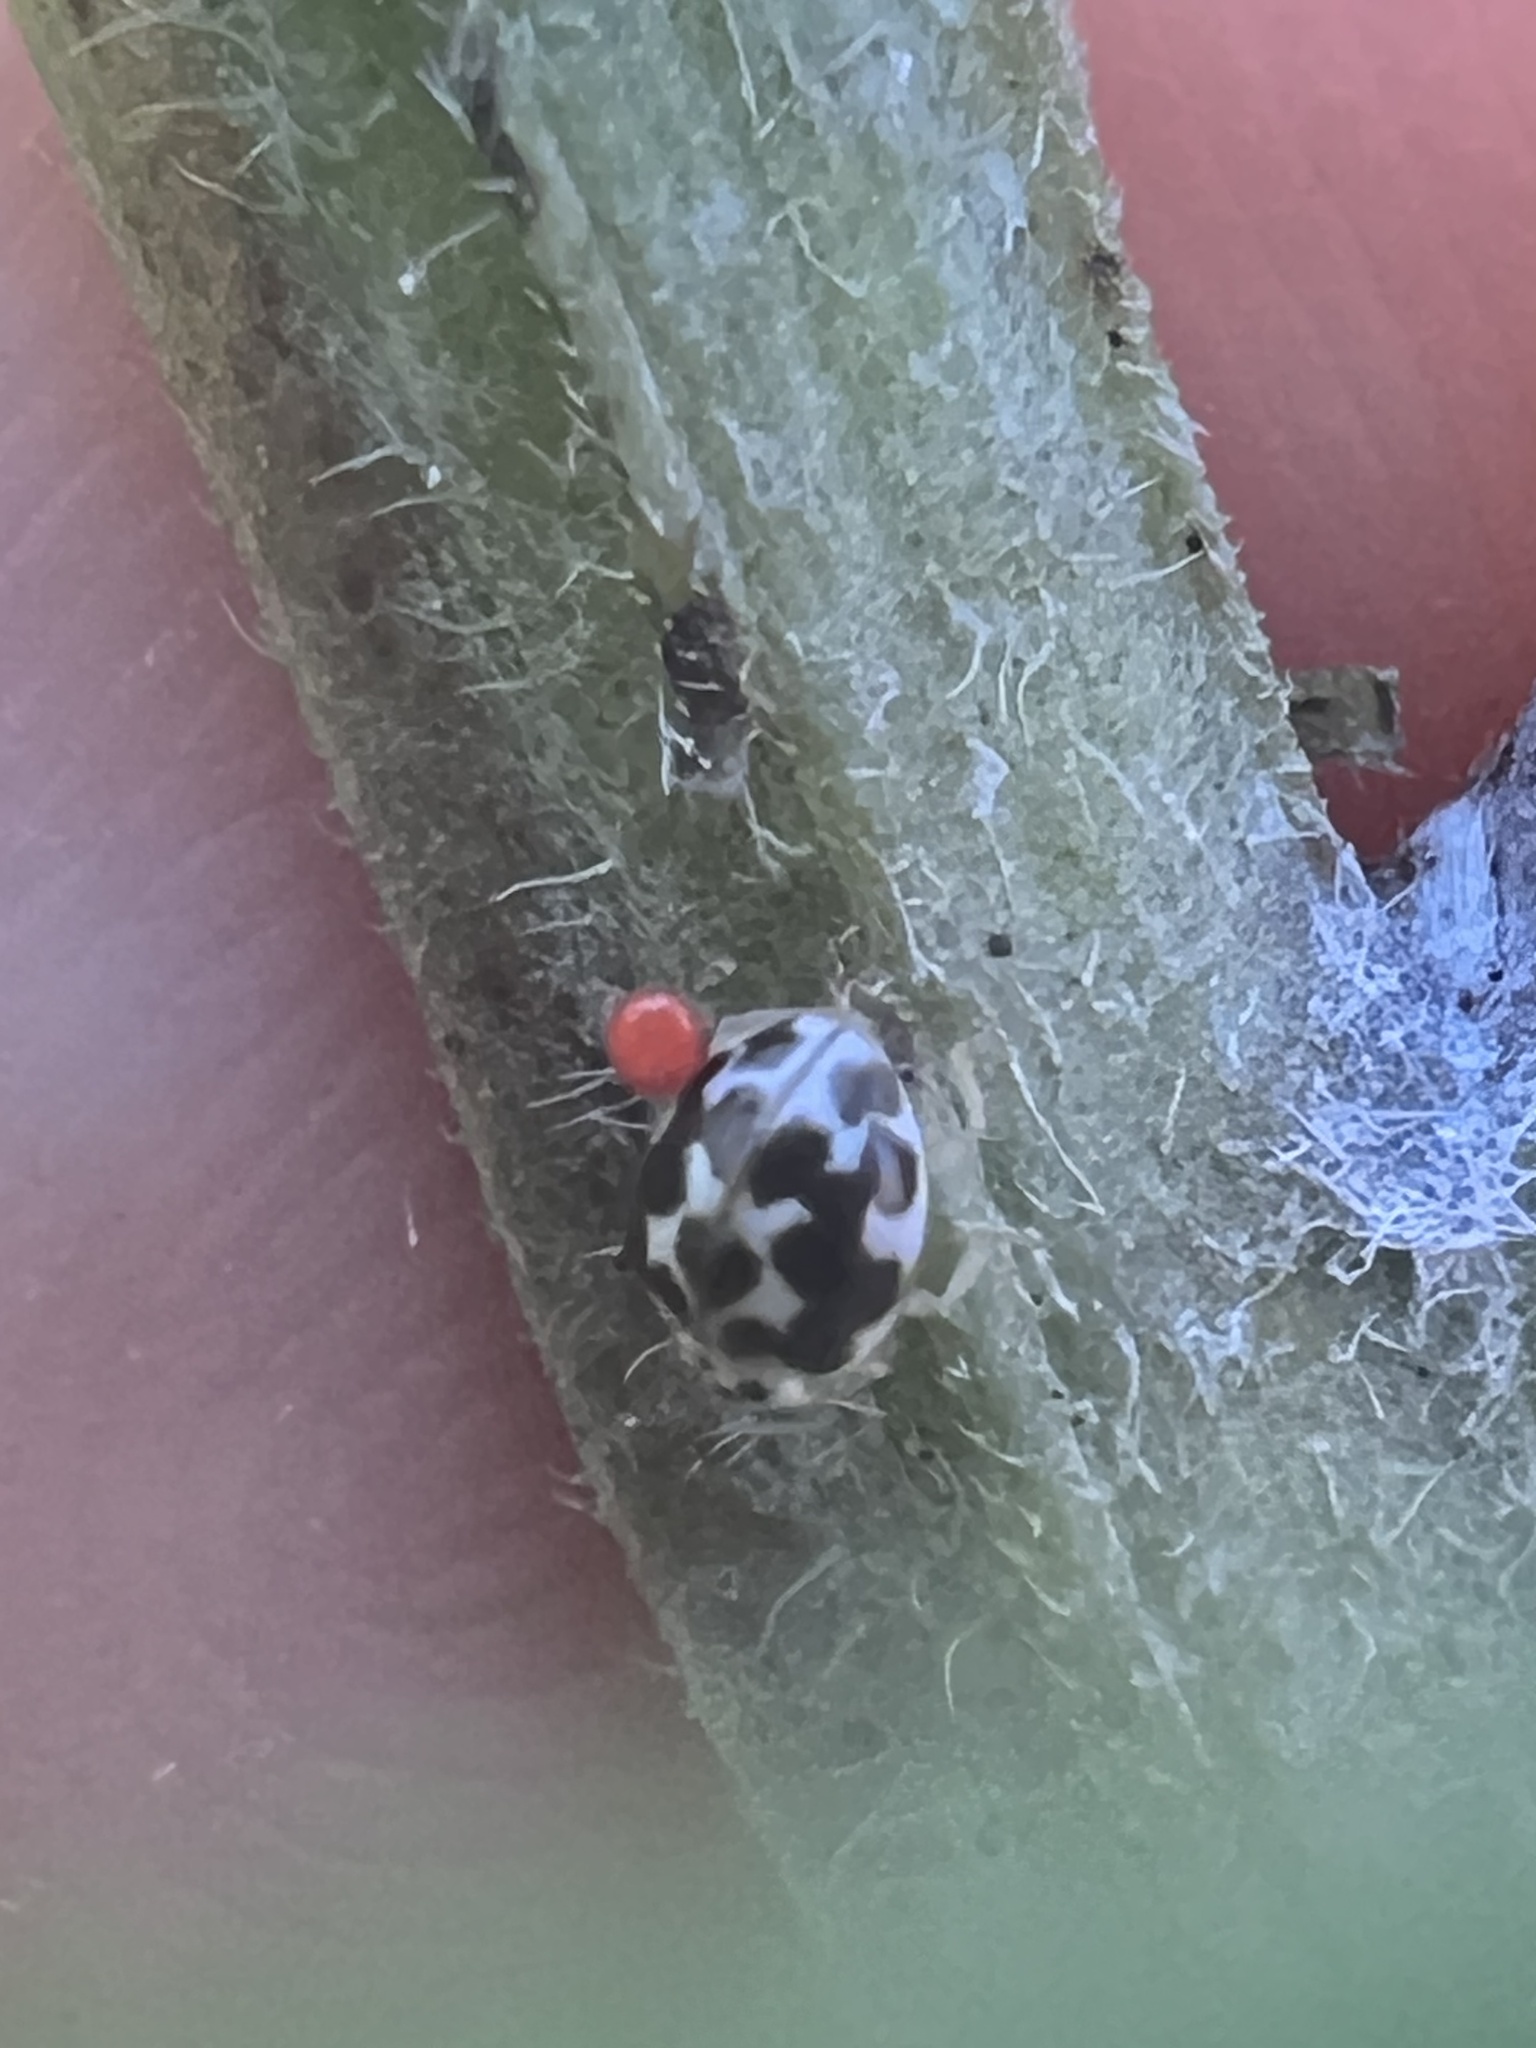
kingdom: Animalia
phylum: Arthropoda
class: Insecta
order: Coleoptera
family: Coccinellidae
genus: Psyllobora
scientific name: Psyllobora vigintimaculata
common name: Ladybird beetle
